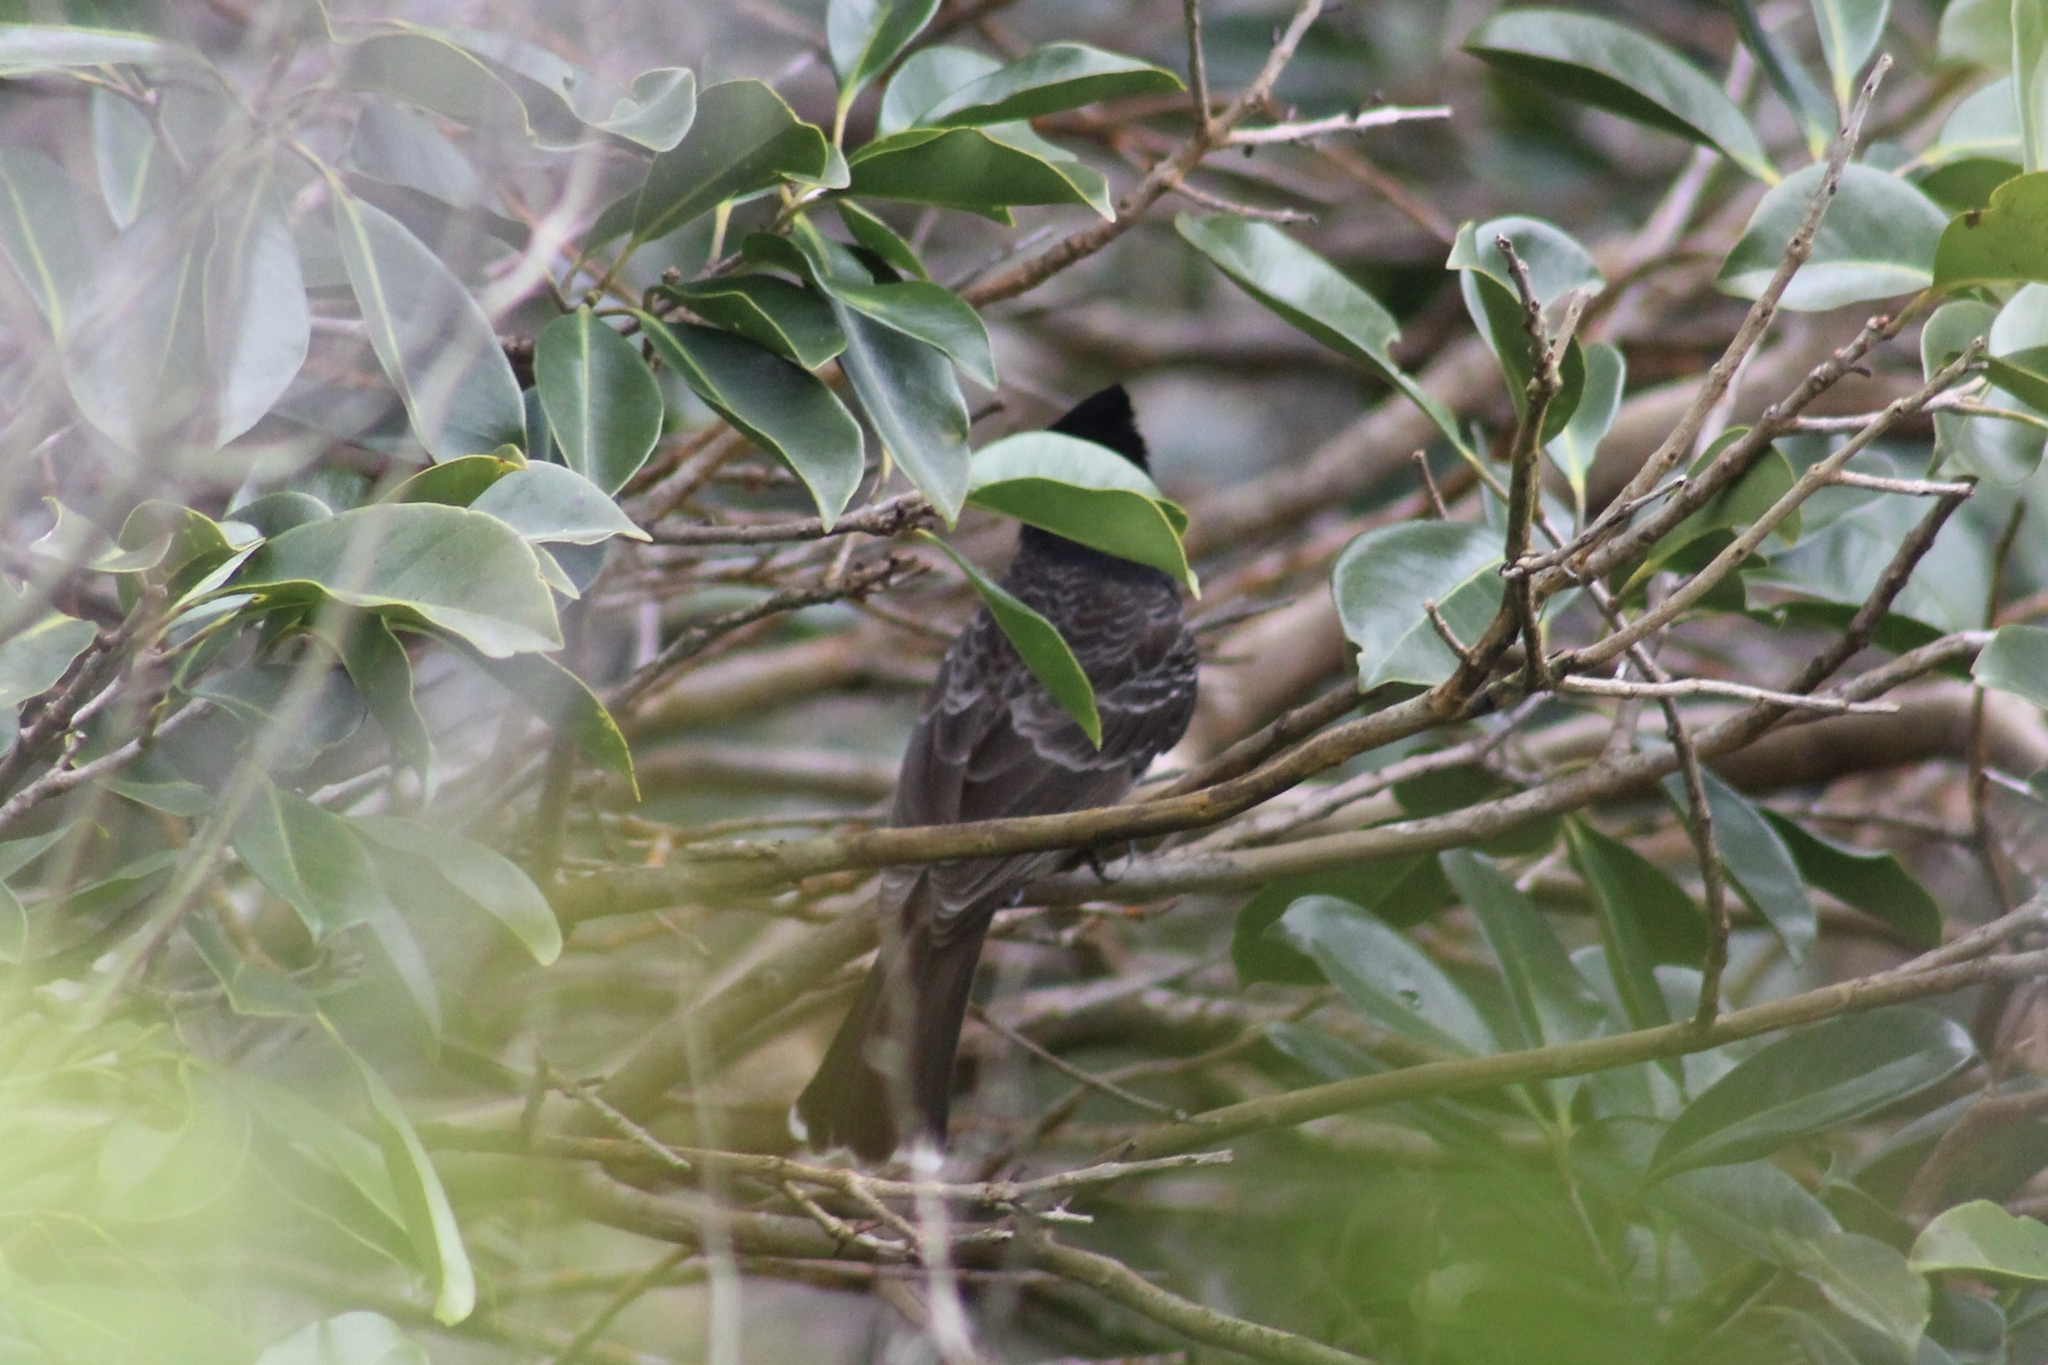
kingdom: Animalia
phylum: Chordata
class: Aves
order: Passeriformes
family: Pycnonotidae
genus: Pycnonotus
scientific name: Pycnonotus cafer
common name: Red-vented bulbul
